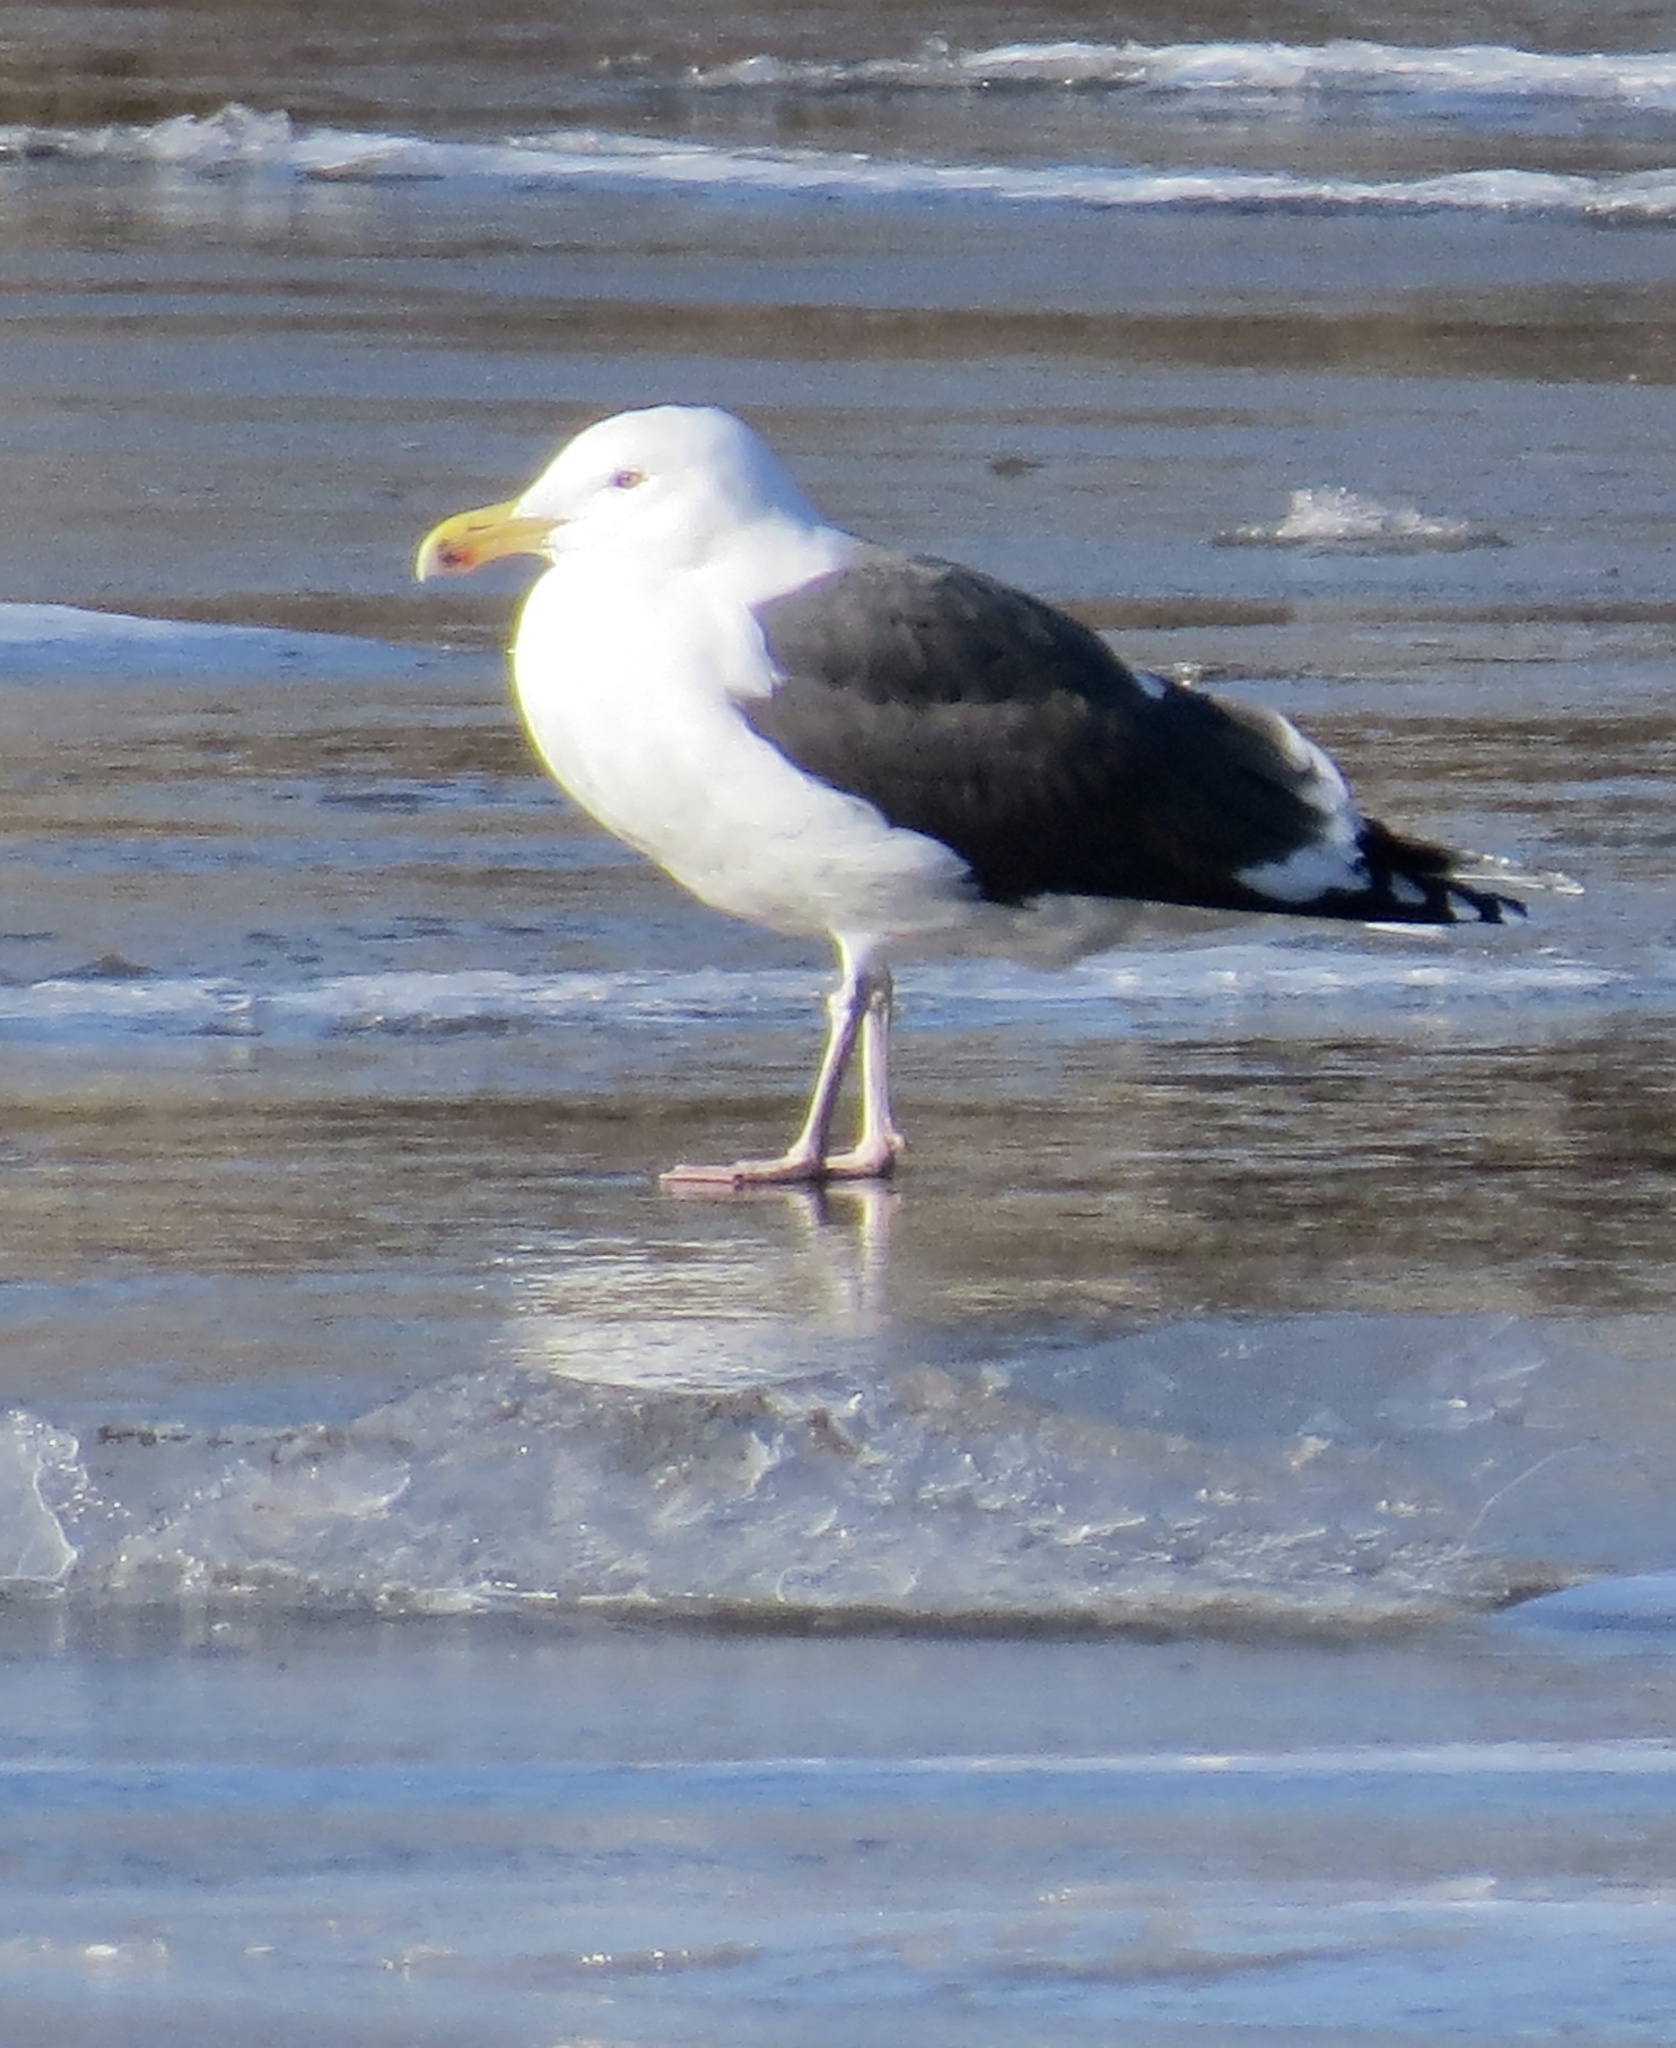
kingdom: Animalia
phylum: Chordata
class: Aves
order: Charadriiformes
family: Laridae
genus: Larus
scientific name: Larus marinus
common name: Great black-backed gull
